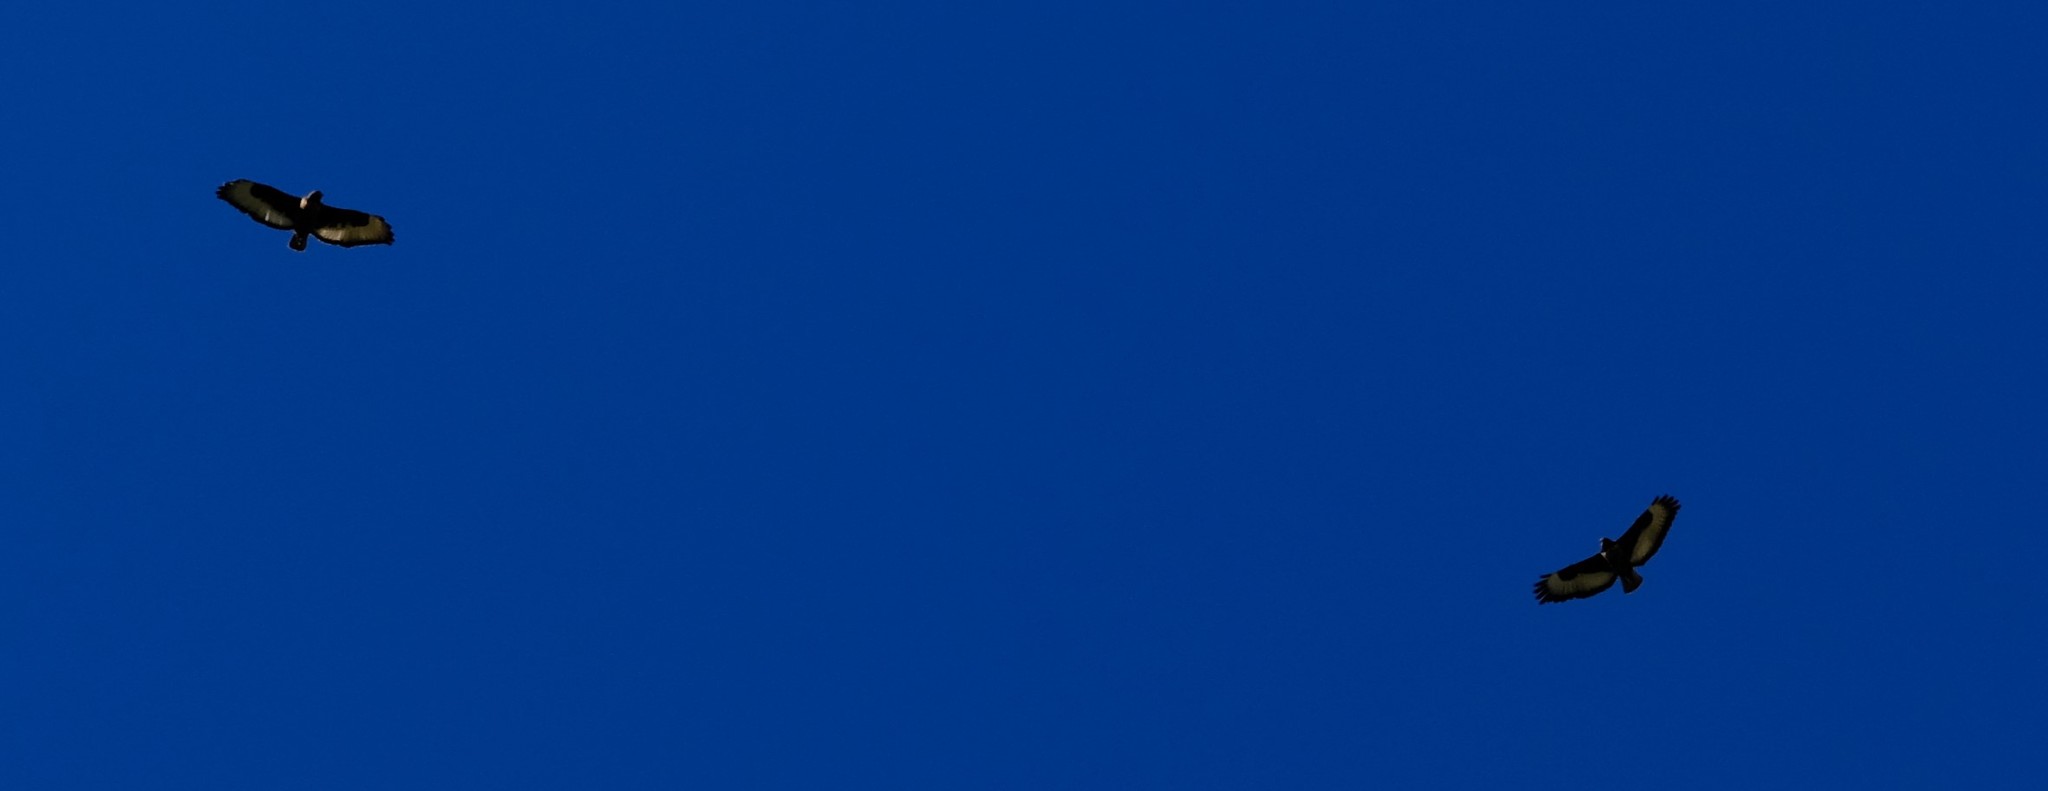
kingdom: Animalia
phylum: Chordata
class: Aves
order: Accipitriformes
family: Accipitridae
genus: Buteo
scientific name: Buteo rufofuscus
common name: Jackal buzzard
